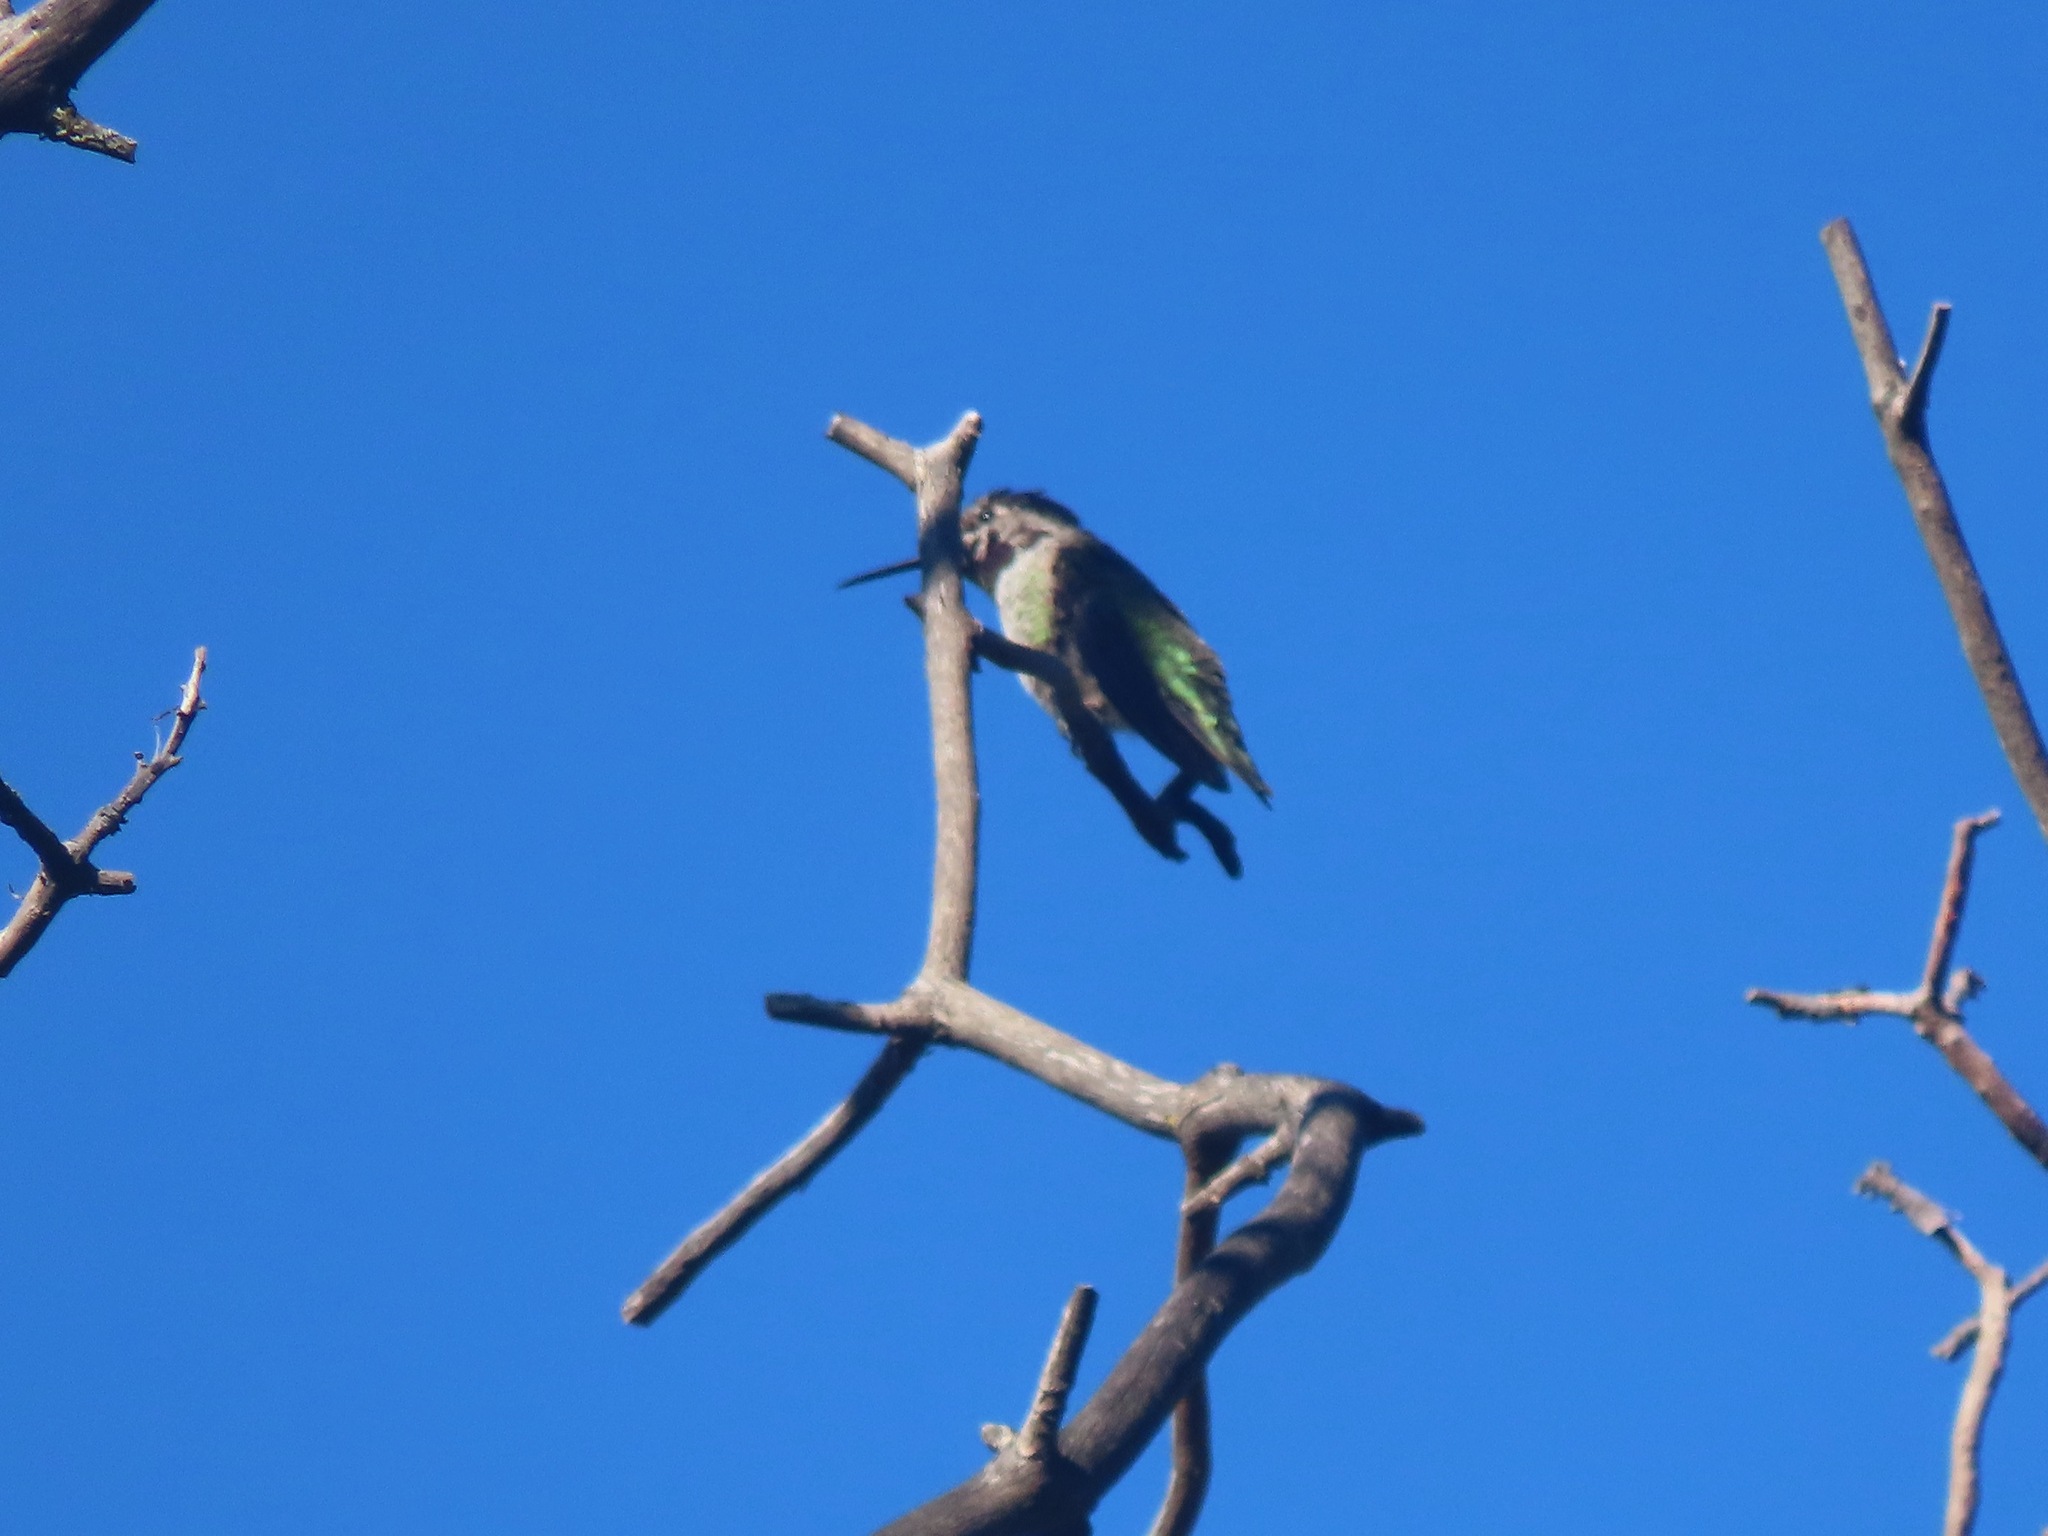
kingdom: Animalia
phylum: Chordata
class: Aves
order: Apodiformes
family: Trochilidae
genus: Calypte
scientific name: Calypte anna
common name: Anna's hummingbird
